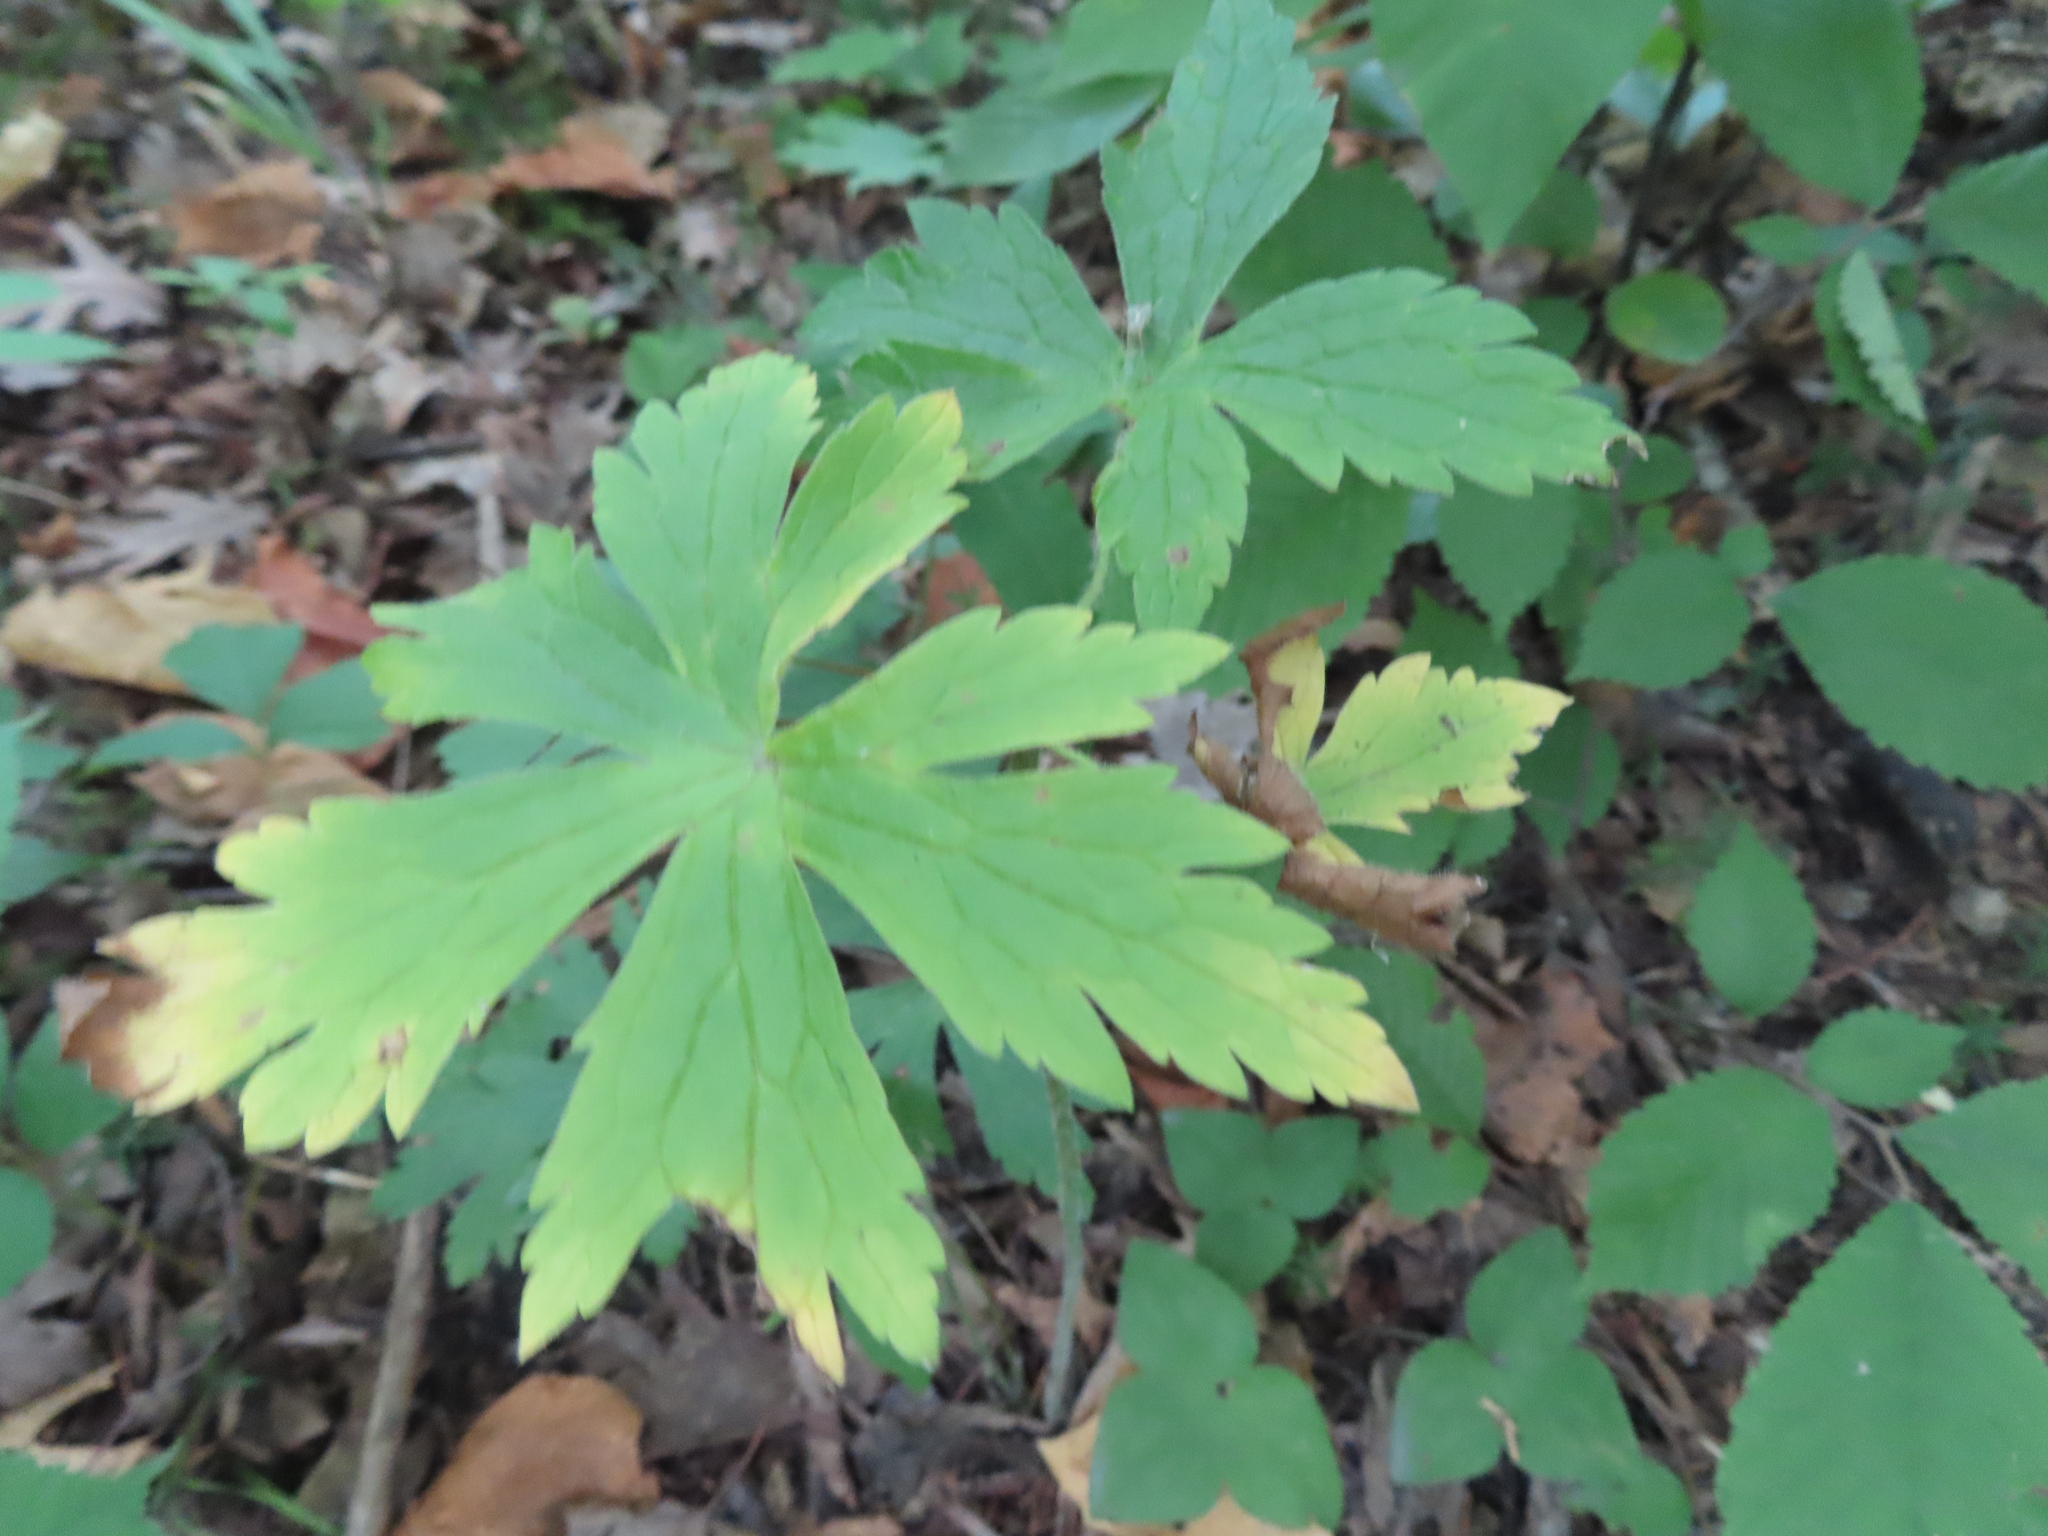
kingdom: Plantae
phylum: Tracheophyta
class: Magnoliopsida
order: Geraniales
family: Geraniaceae
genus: Geranium
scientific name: Geranium maculatum
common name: Spotted geranium
